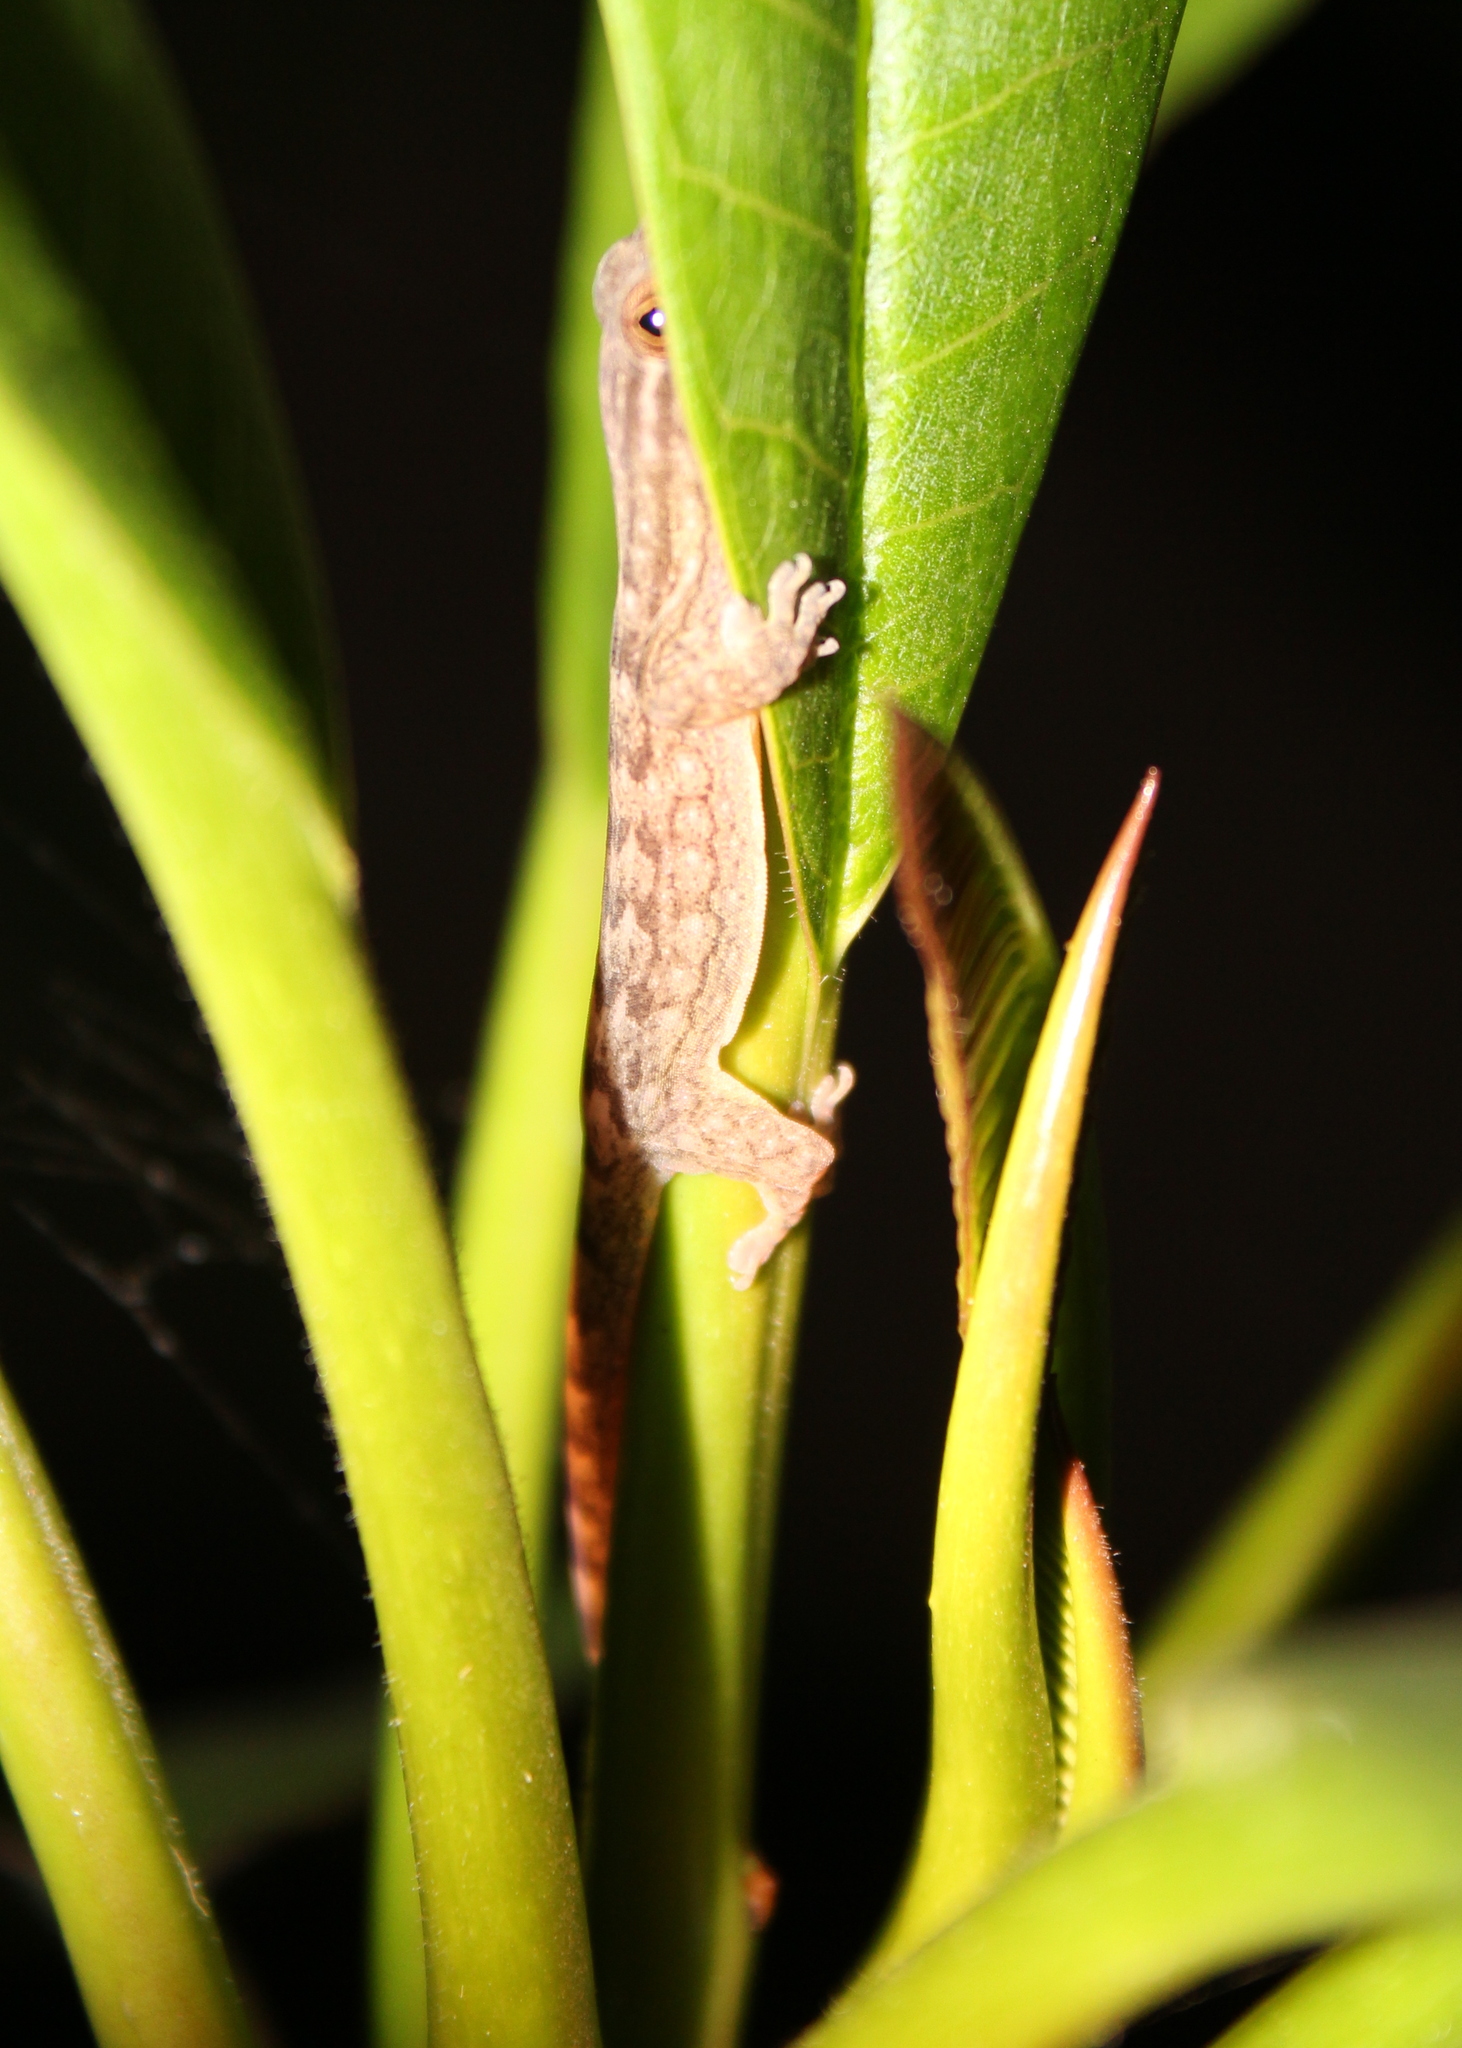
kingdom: Animalia
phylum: Chordata
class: Squamata
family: Gekkonidae
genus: Gehyra
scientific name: Gehyra oceanica
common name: Pacific dtella
